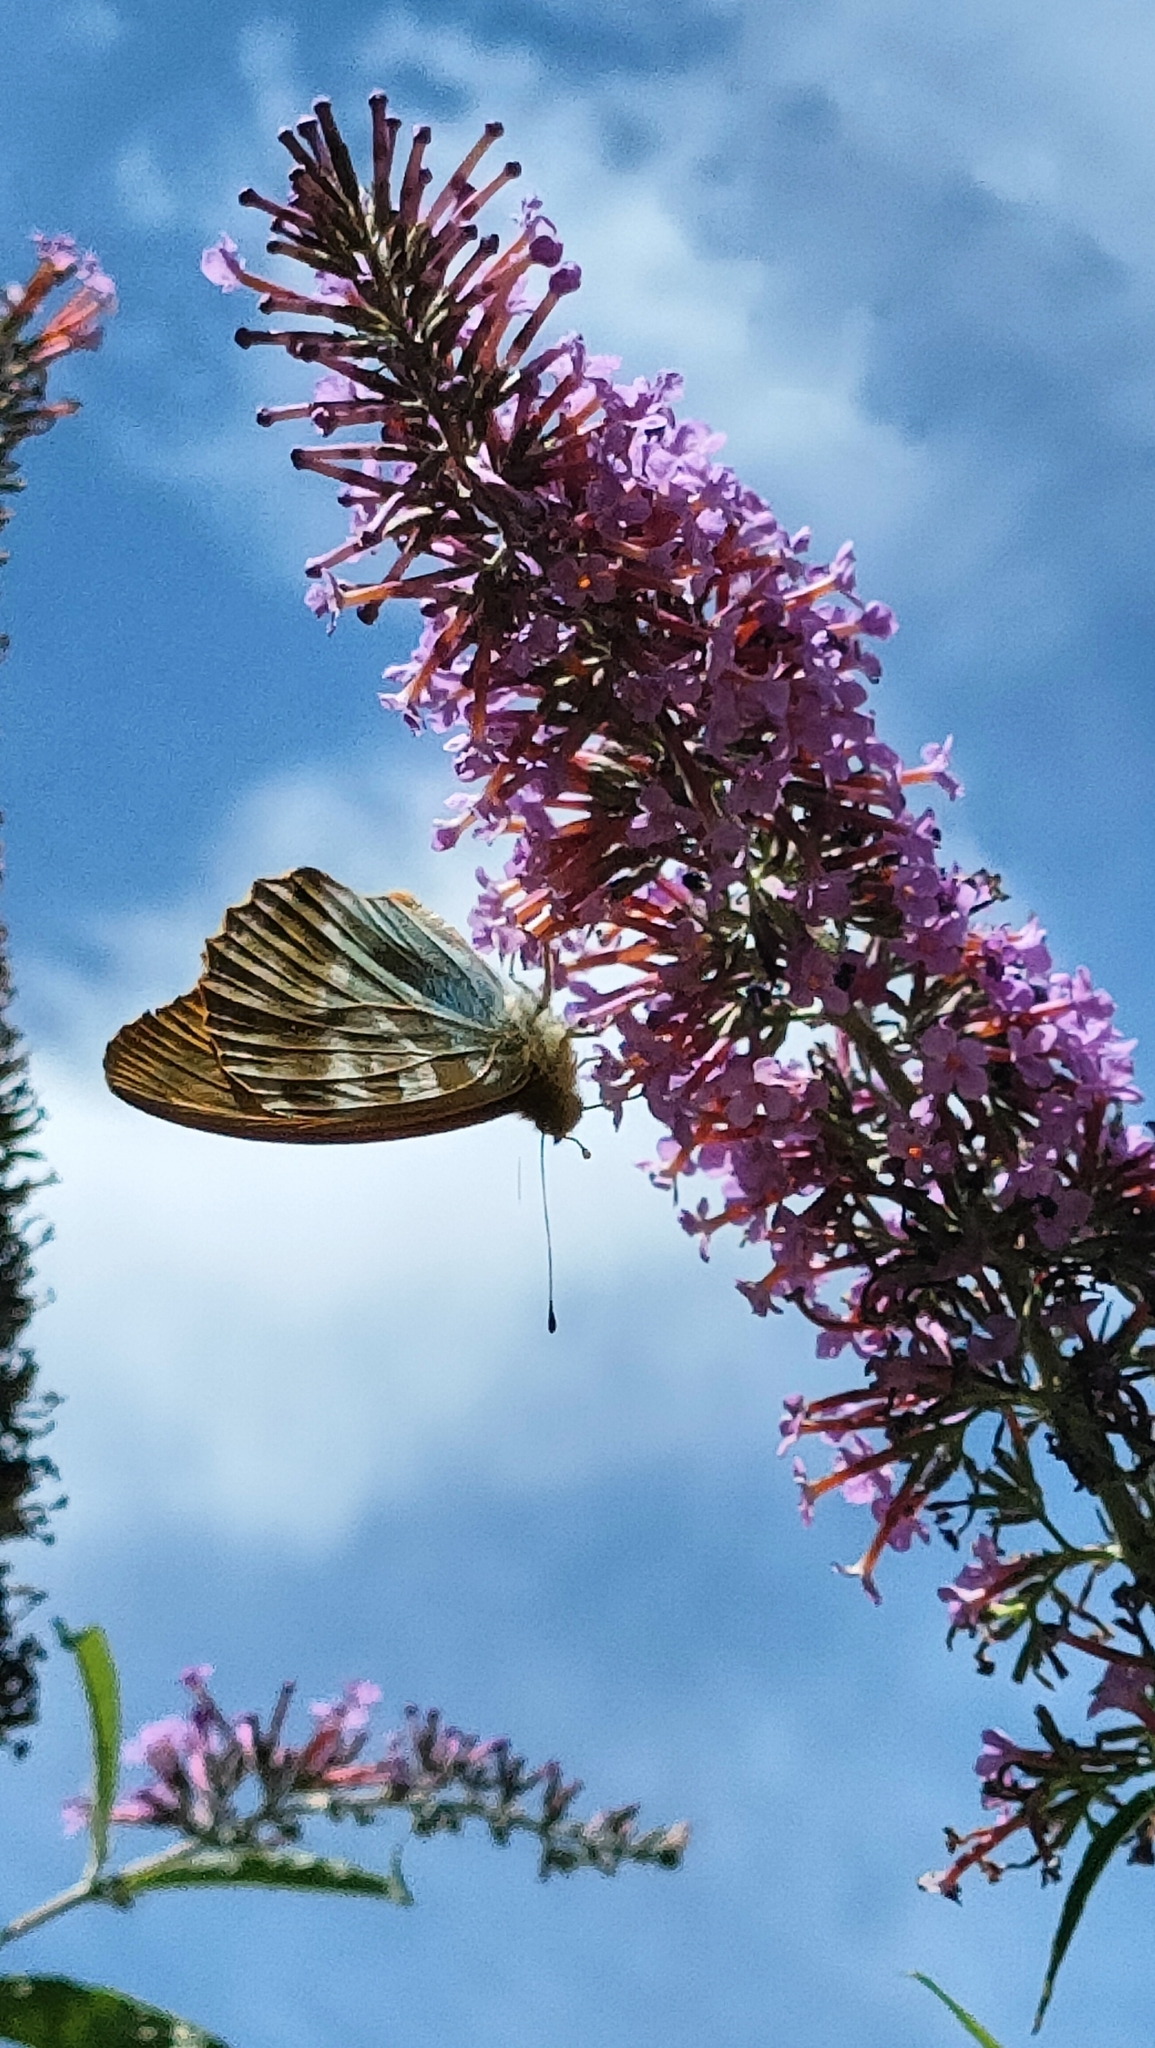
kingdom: Animalia
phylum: Arthropoda
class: Insecta
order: Lepidoptera
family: Nymphalidae
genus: Argynnis
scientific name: Argynnis paphia
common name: Silver-washed fritillary
